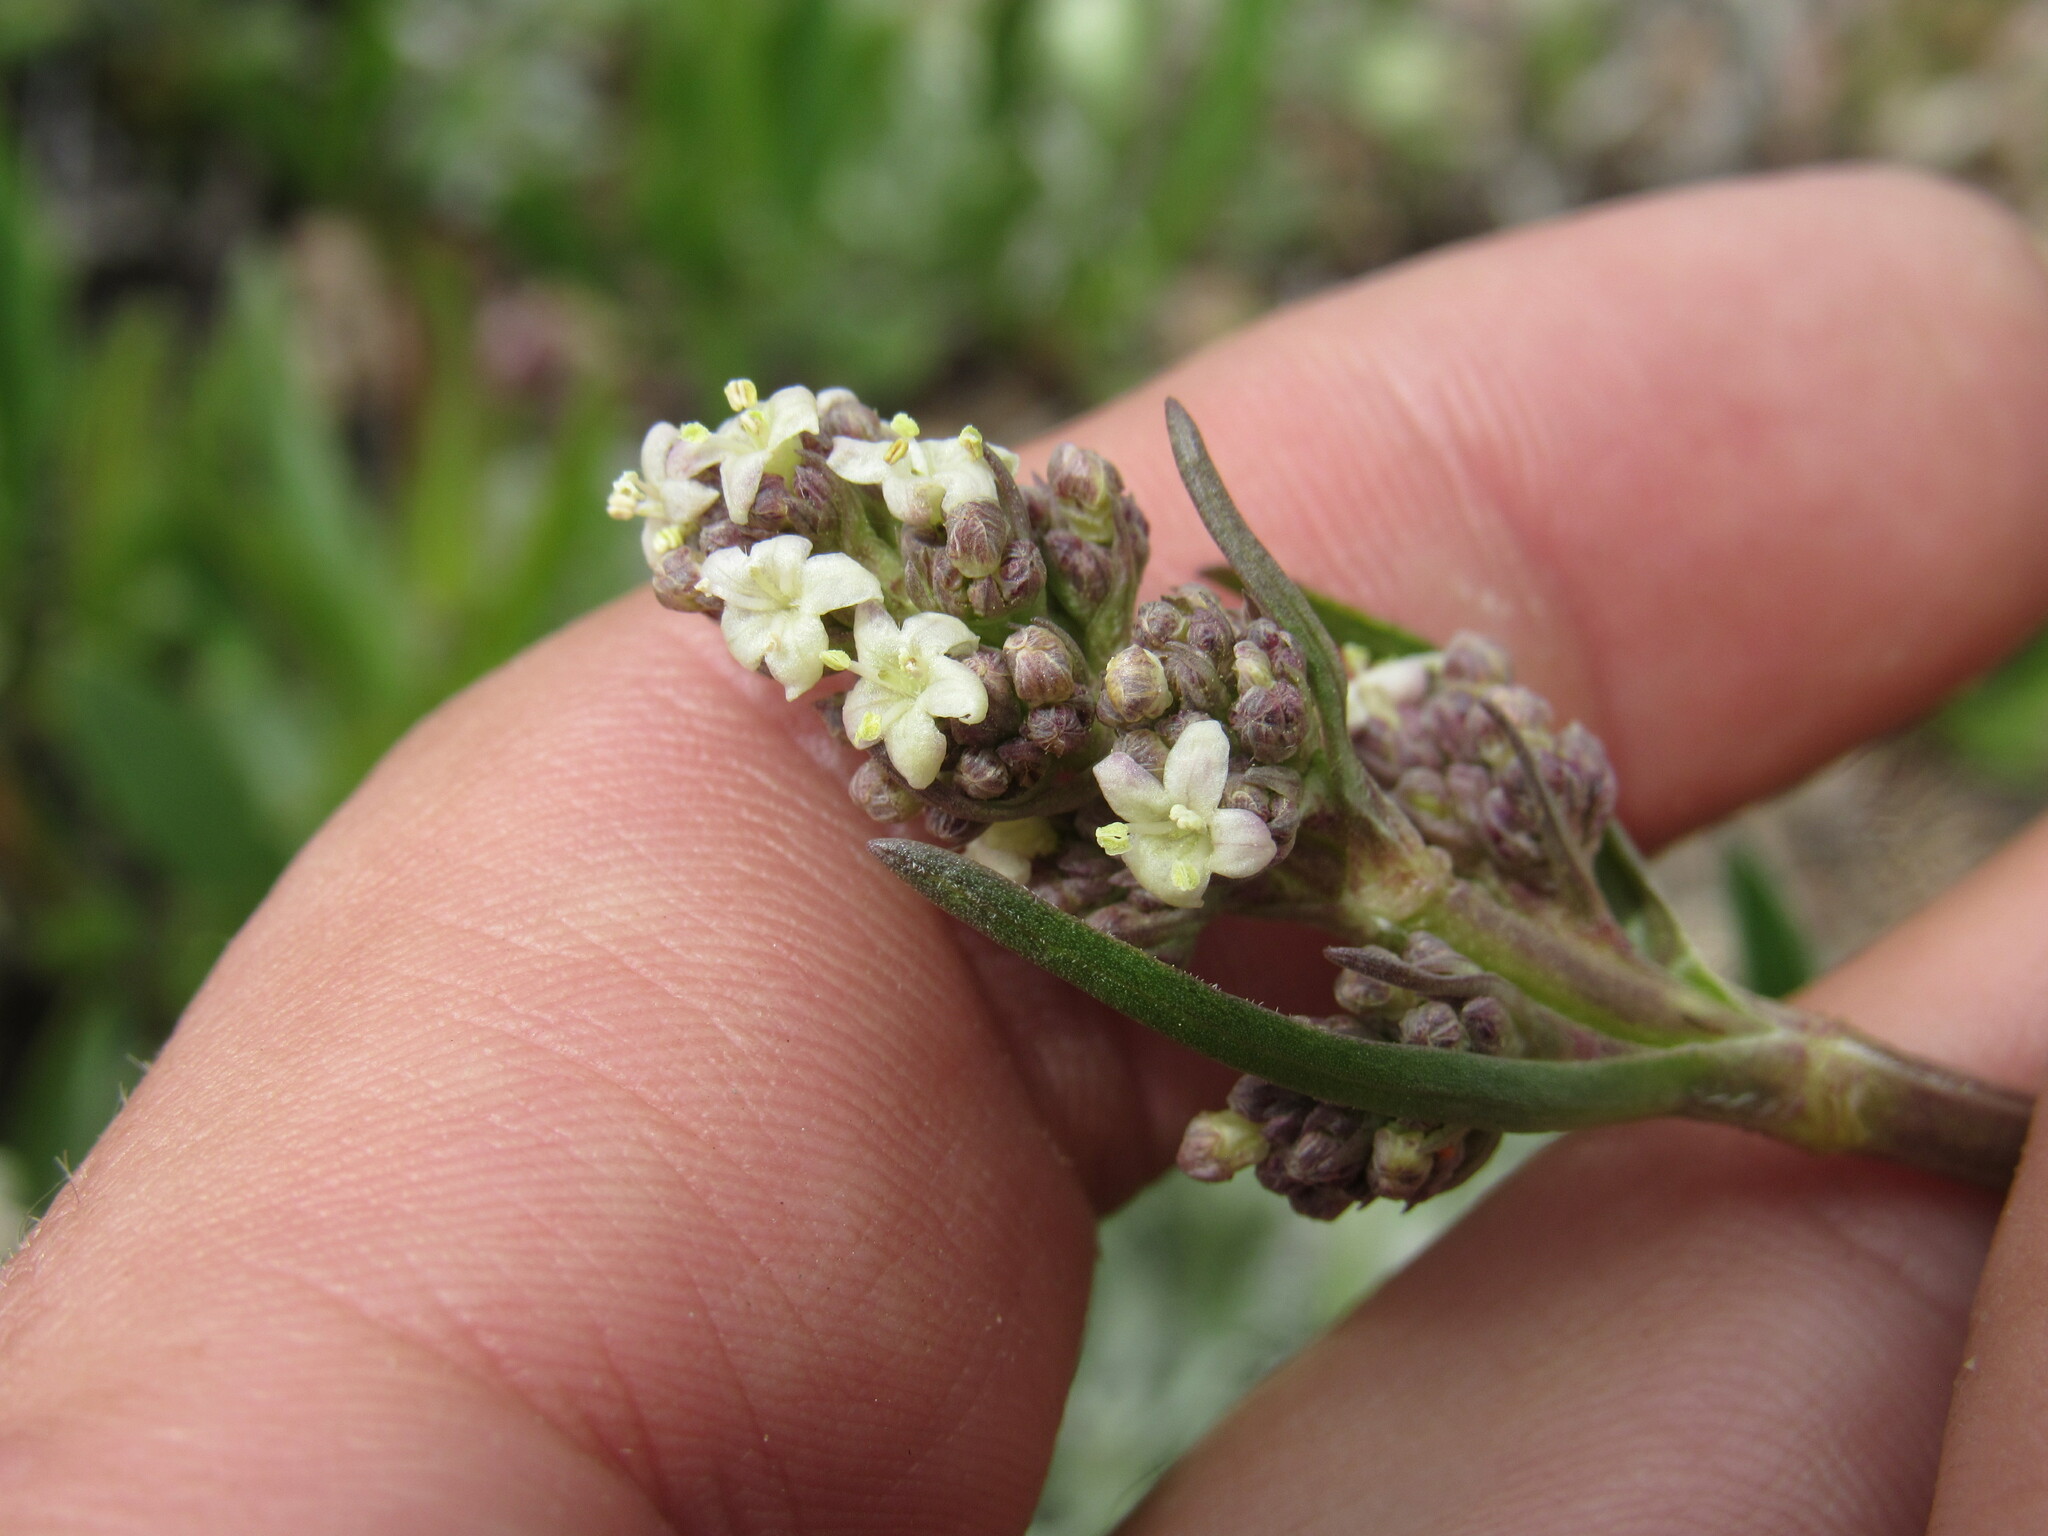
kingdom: Plantae
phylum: Tracheophyta
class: Magnoliopsida
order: Dipsacales
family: Caprifoliaceae
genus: Valeriana
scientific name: Valeriana edulis
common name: Taproot valerian
